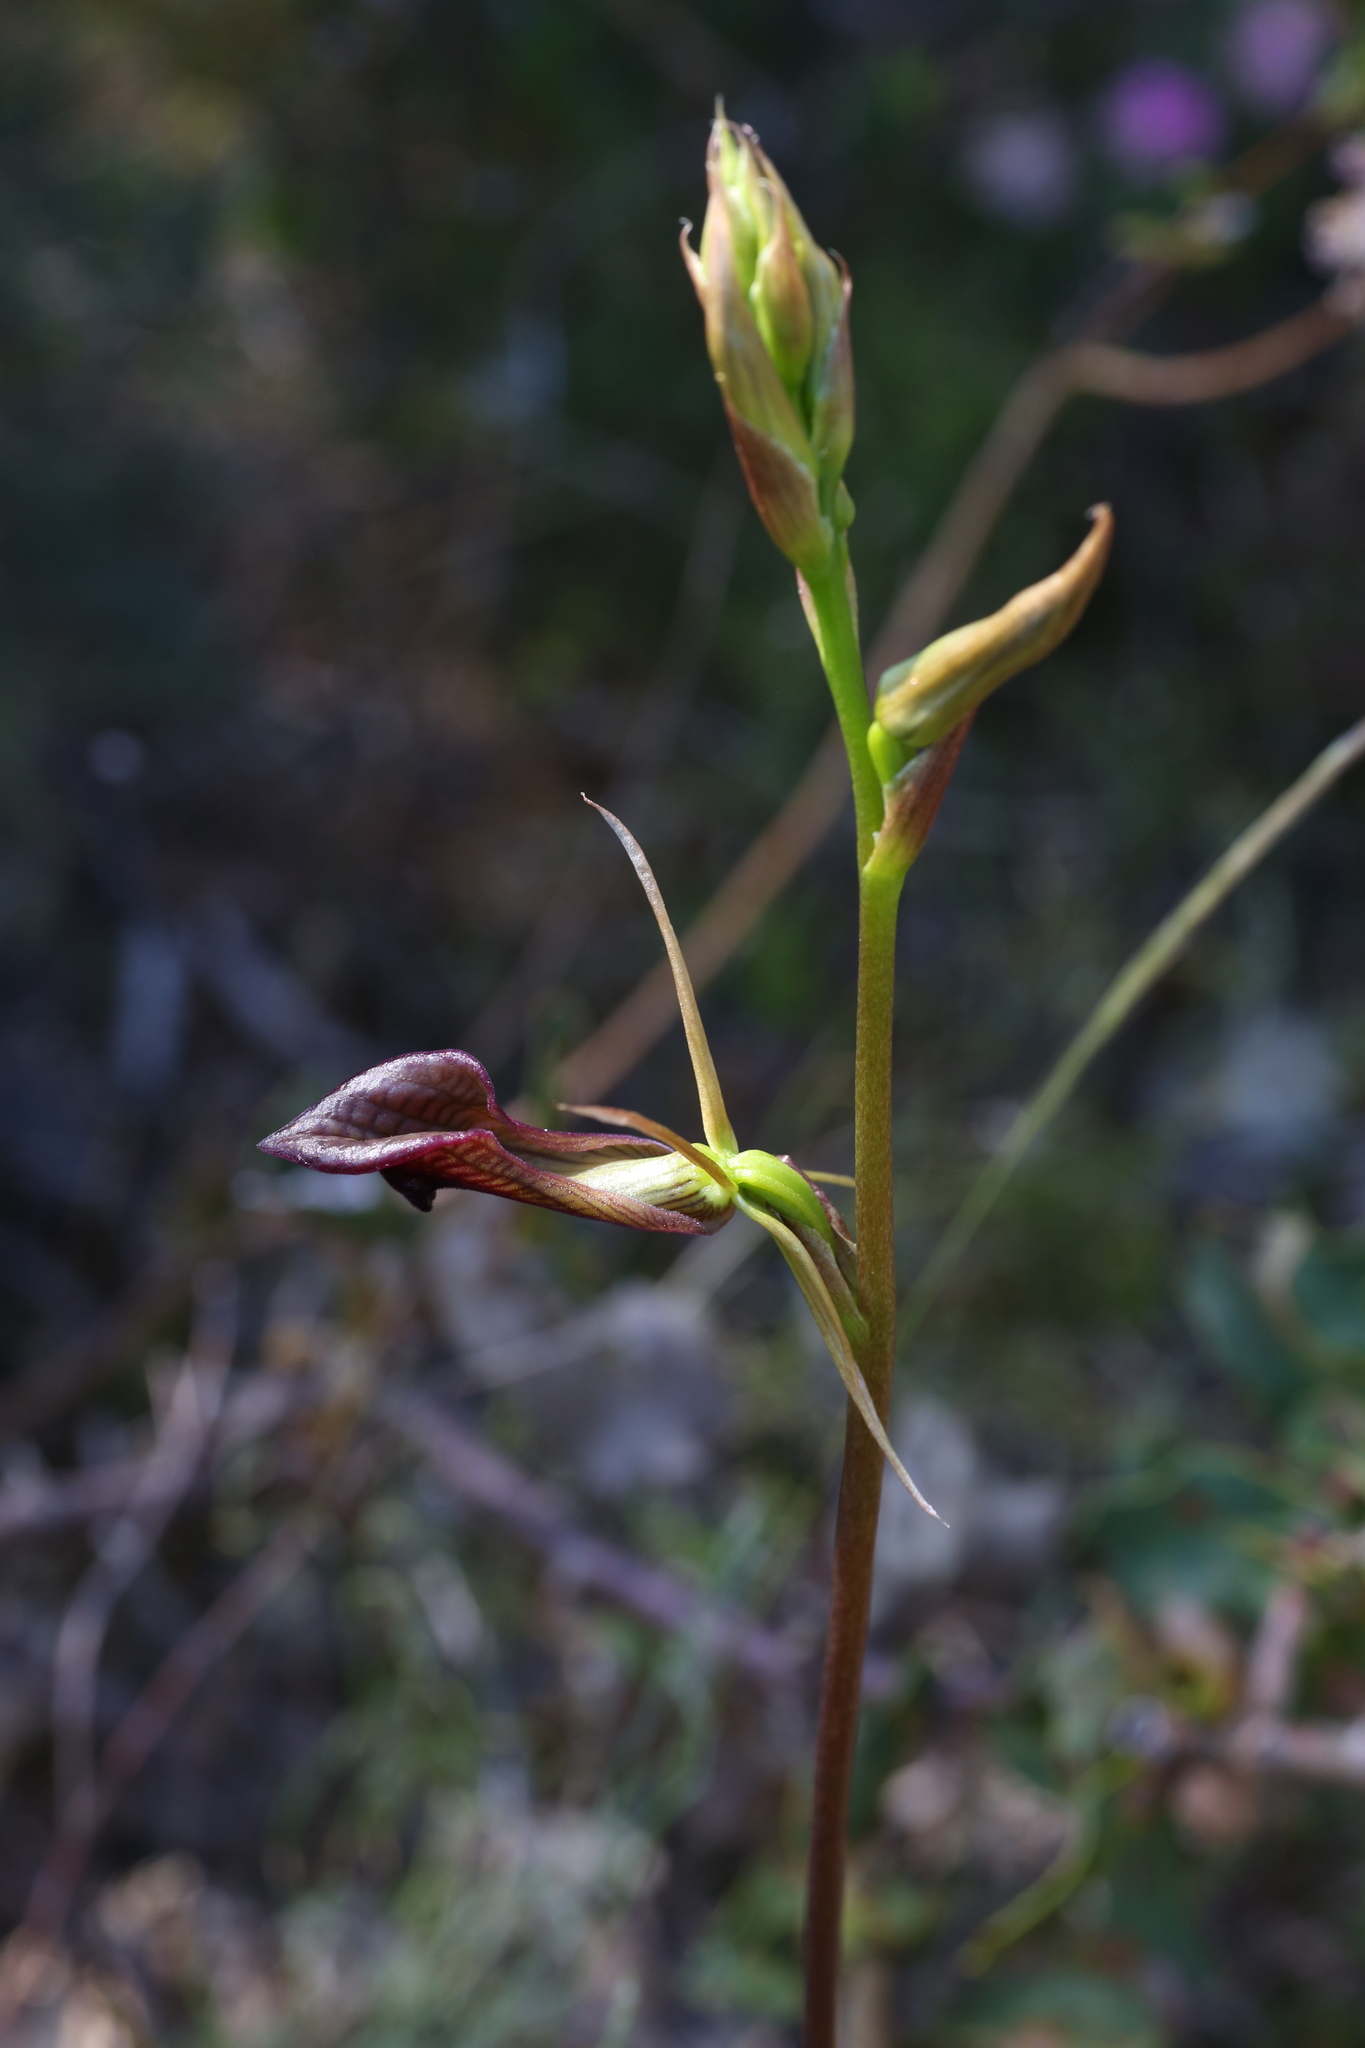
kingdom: Plantae
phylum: Tracheophyta
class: Liliopsida
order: Asparagales
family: Orchidaceae
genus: Cryptostylis
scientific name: Cryptostylis ovata
